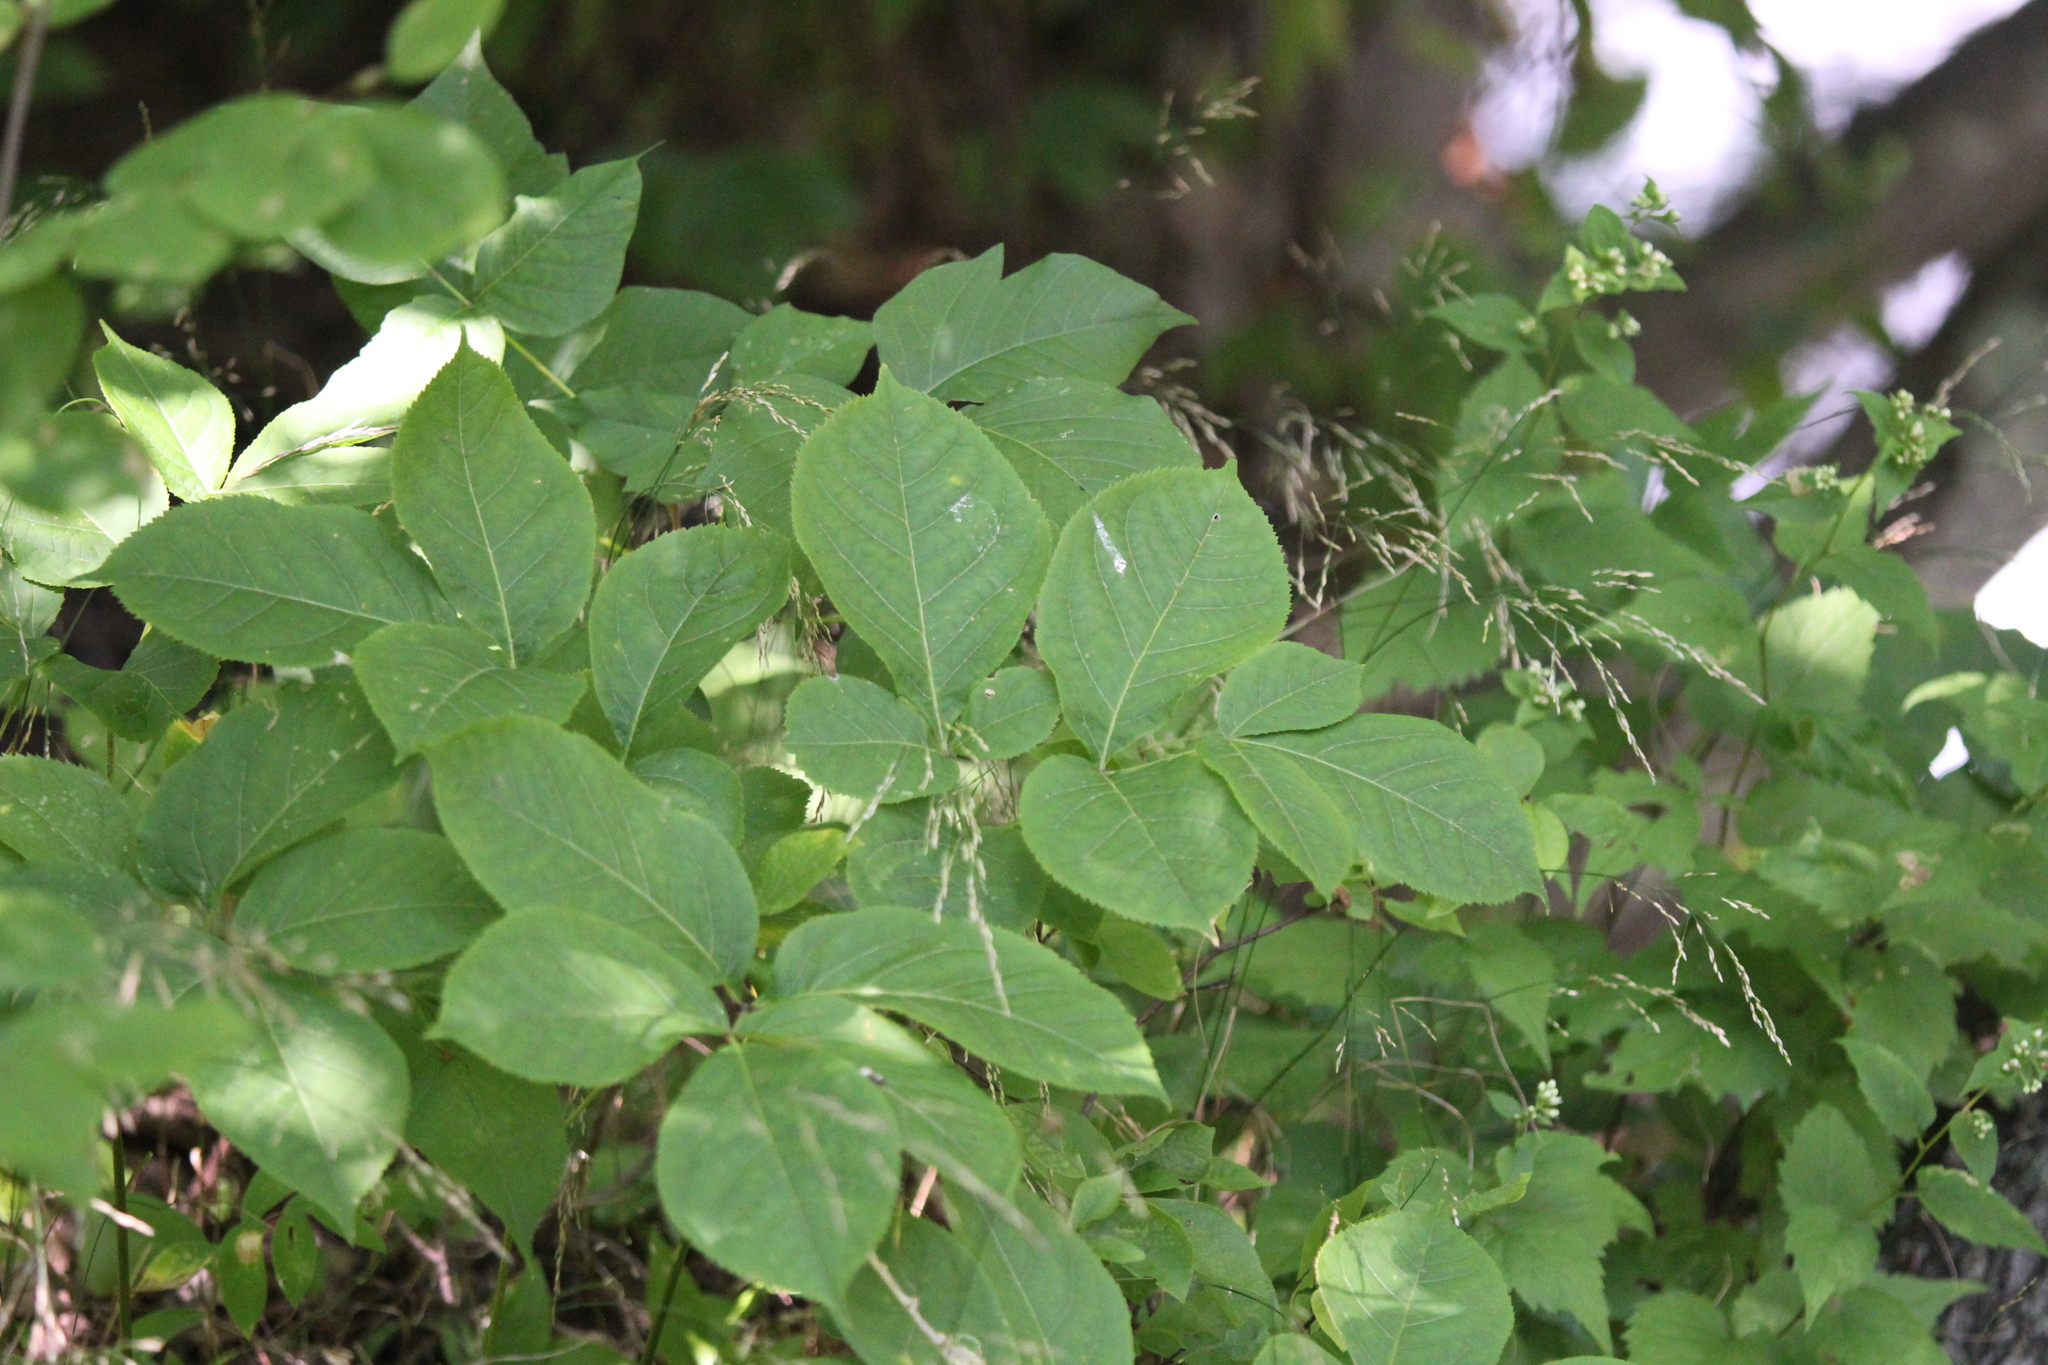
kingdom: Plantae
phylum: Tracheophyta
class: Magnoliopsida
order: Apiales
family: Araliaceae
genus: Aralia
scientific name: Aralia nudicaulis
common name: Wild sarsaparilla
